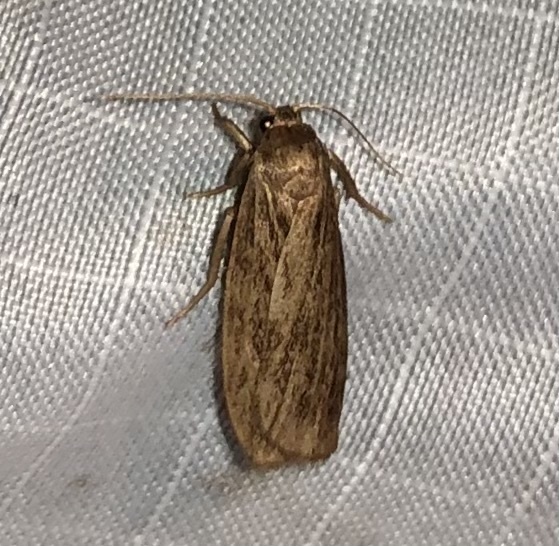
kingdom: Animalia
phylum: Arthropoda
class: Insecta
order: Lepidoptera
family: Erebidae
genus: Crambidia
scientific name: Crambidia pallida
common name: Pale lichen moth
